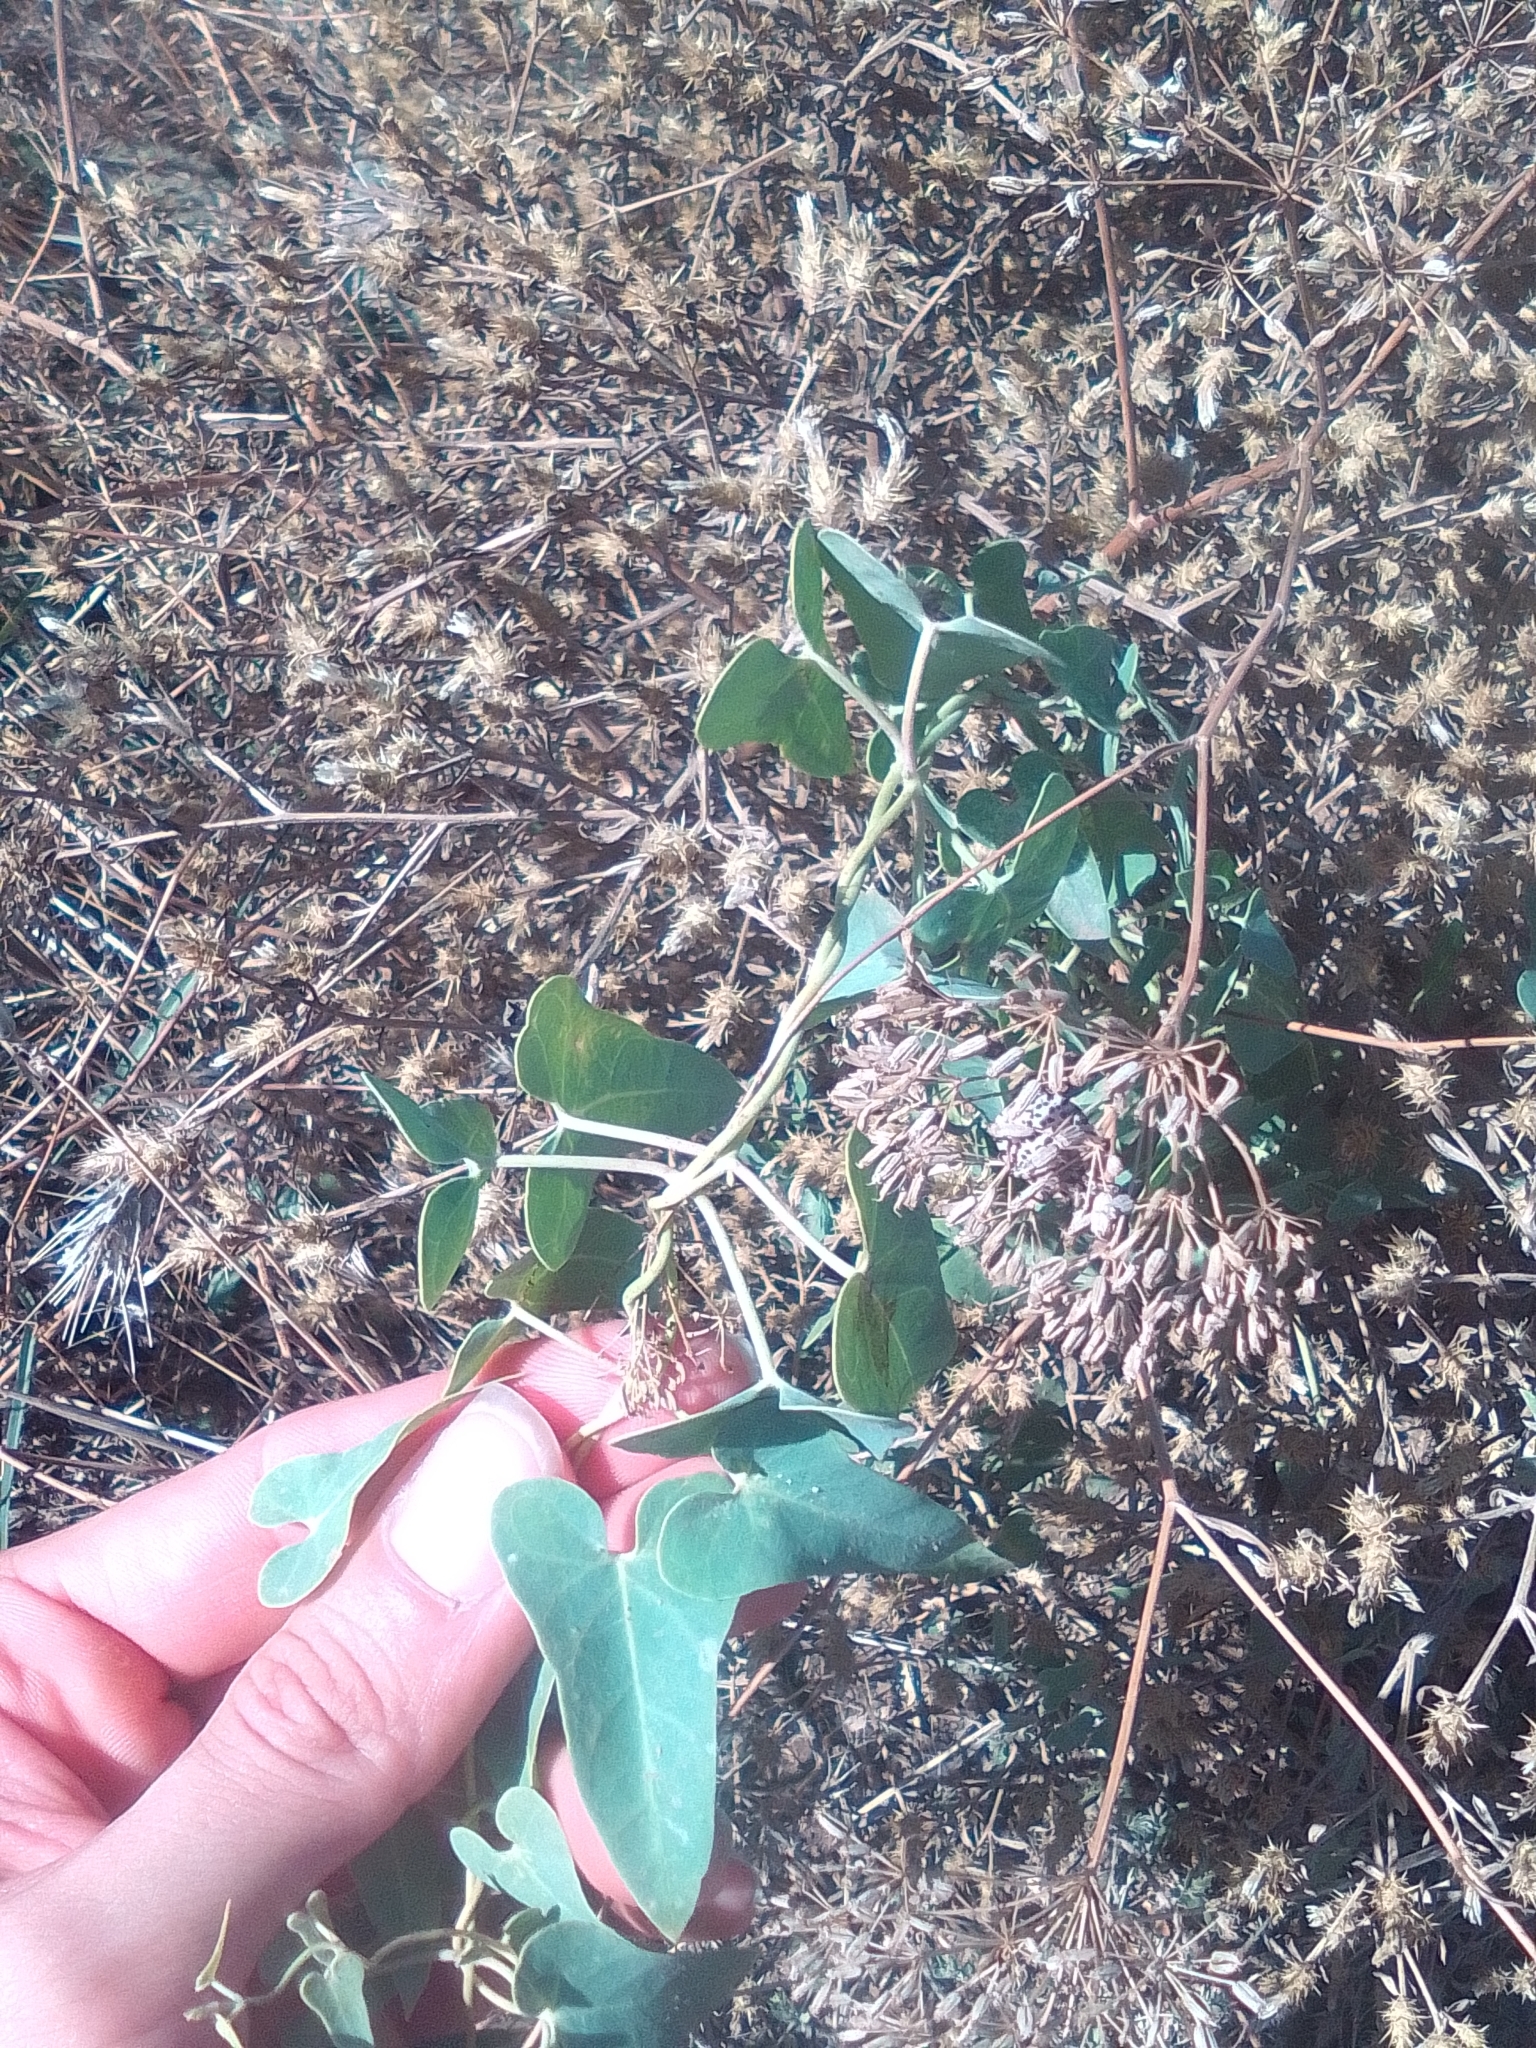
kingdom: Plantae
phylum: Tracheophyta
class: Magnoliopsida
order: Gentianales
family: Apocynaceae
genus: Cynanchum
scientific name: Cynanchum acutum
